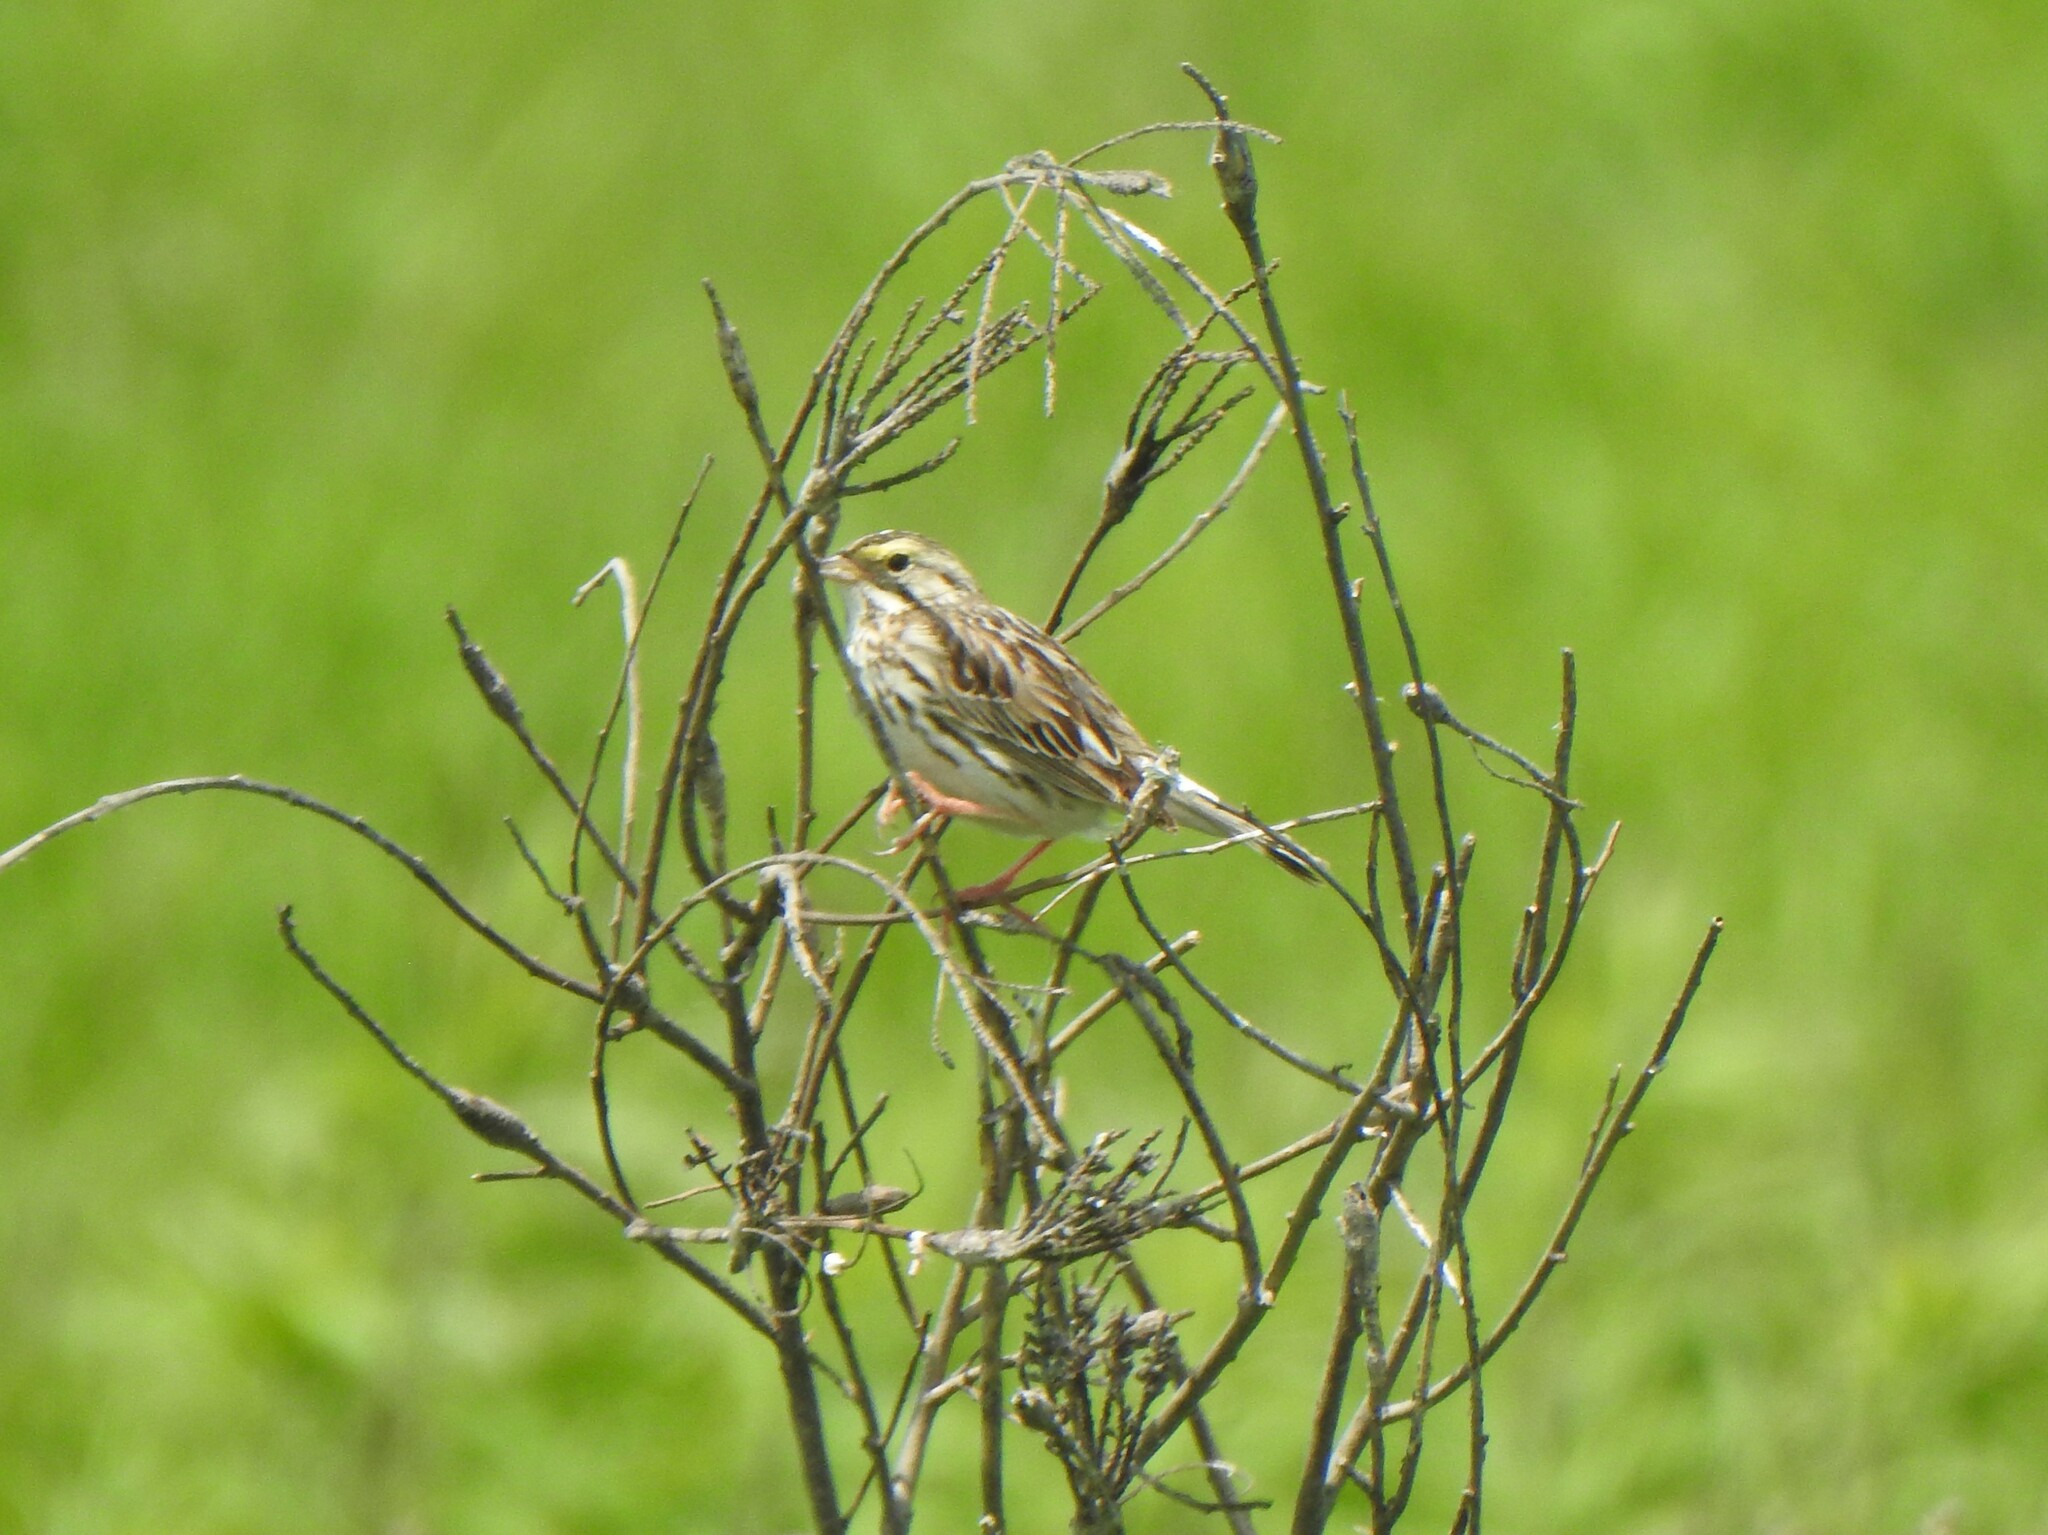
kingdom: Animalia
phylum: Chordata
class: Aves
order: Passeriformes
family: Passerellidae
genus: Passerculus
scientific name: Passerculus sandwichensis
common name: Savannah sparrow
